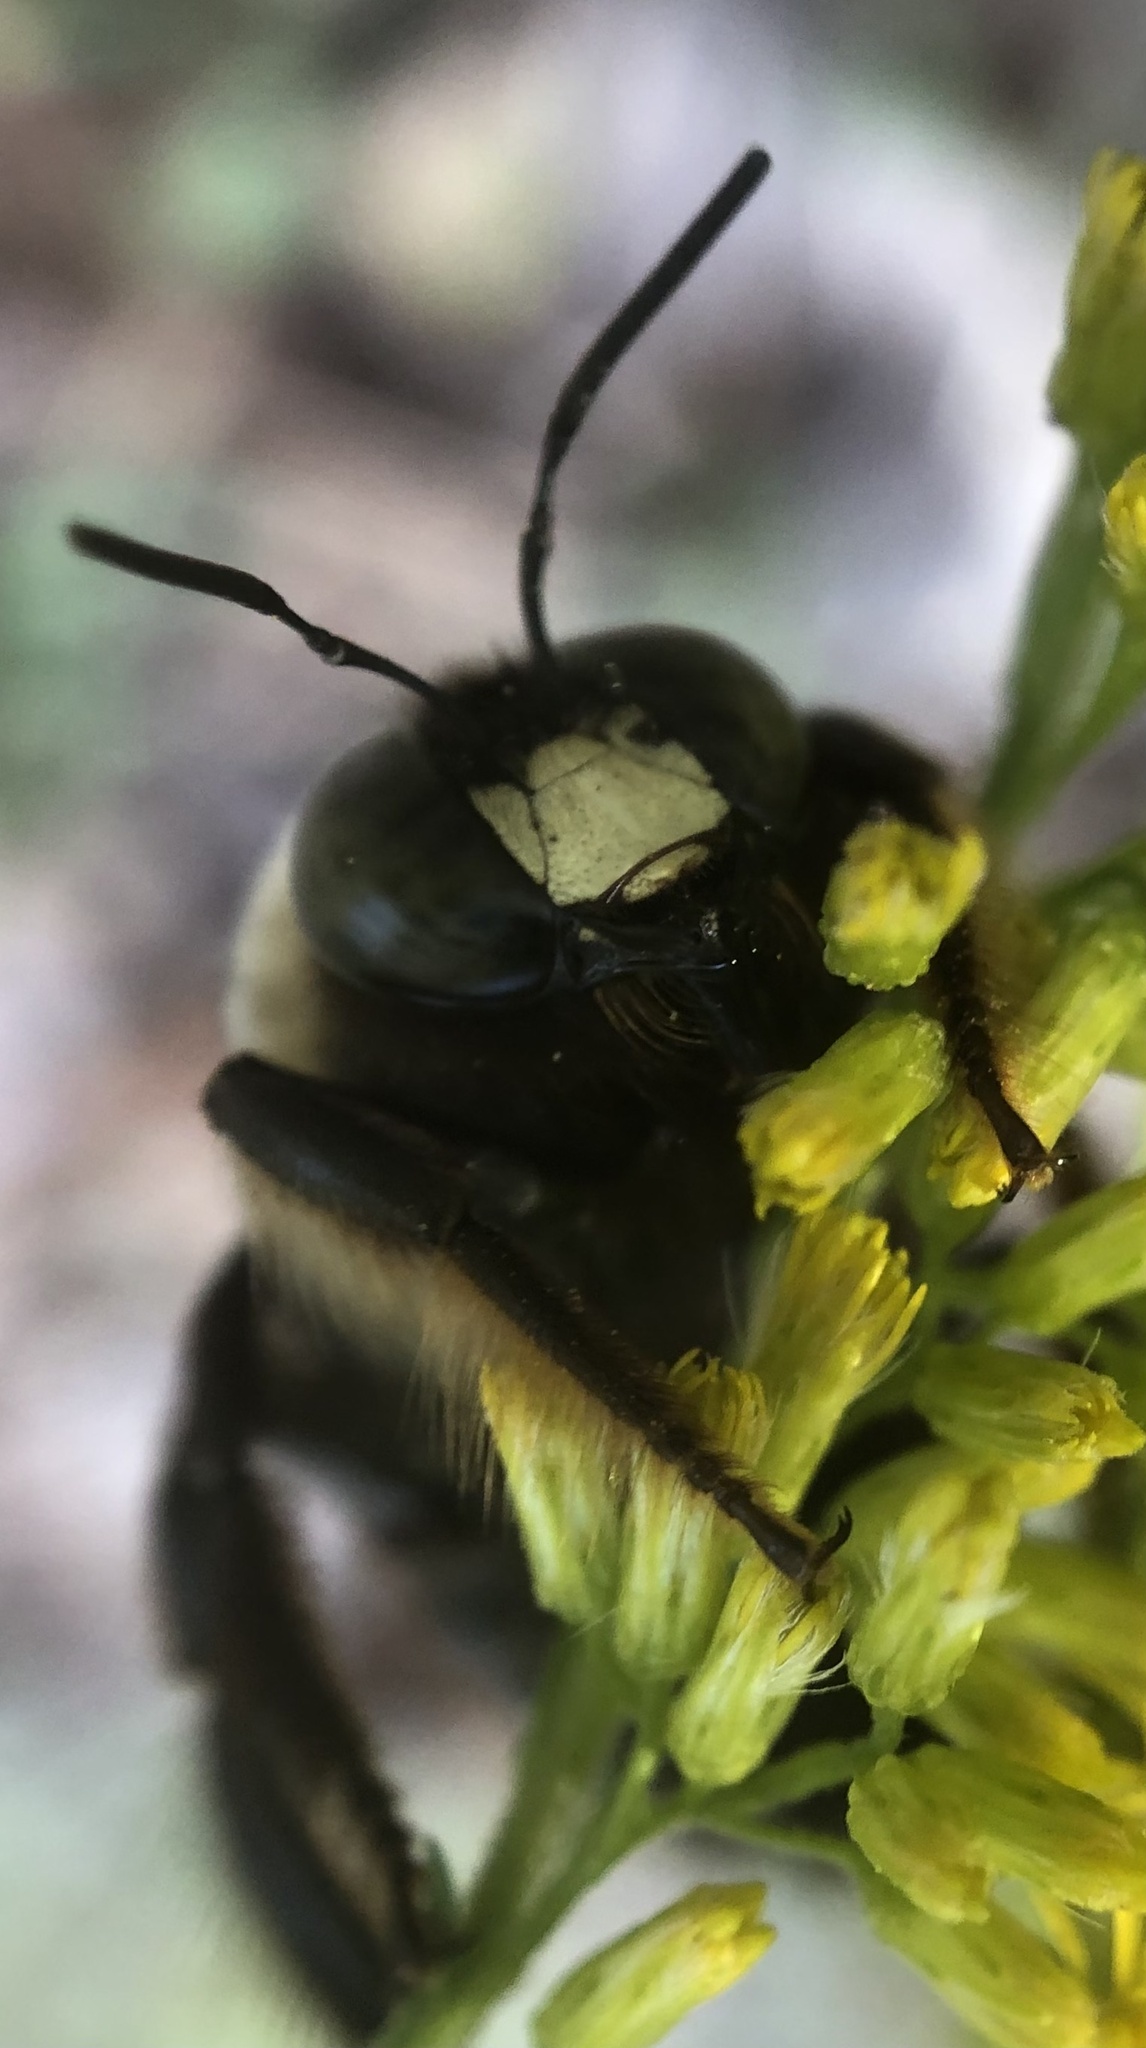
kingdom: Animalia
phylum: Arthropoda
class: Insecta
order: Hymenoptera
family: Apidae
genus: Xylocopa
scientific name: Xylocopa virginica
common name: Carpenter bee
